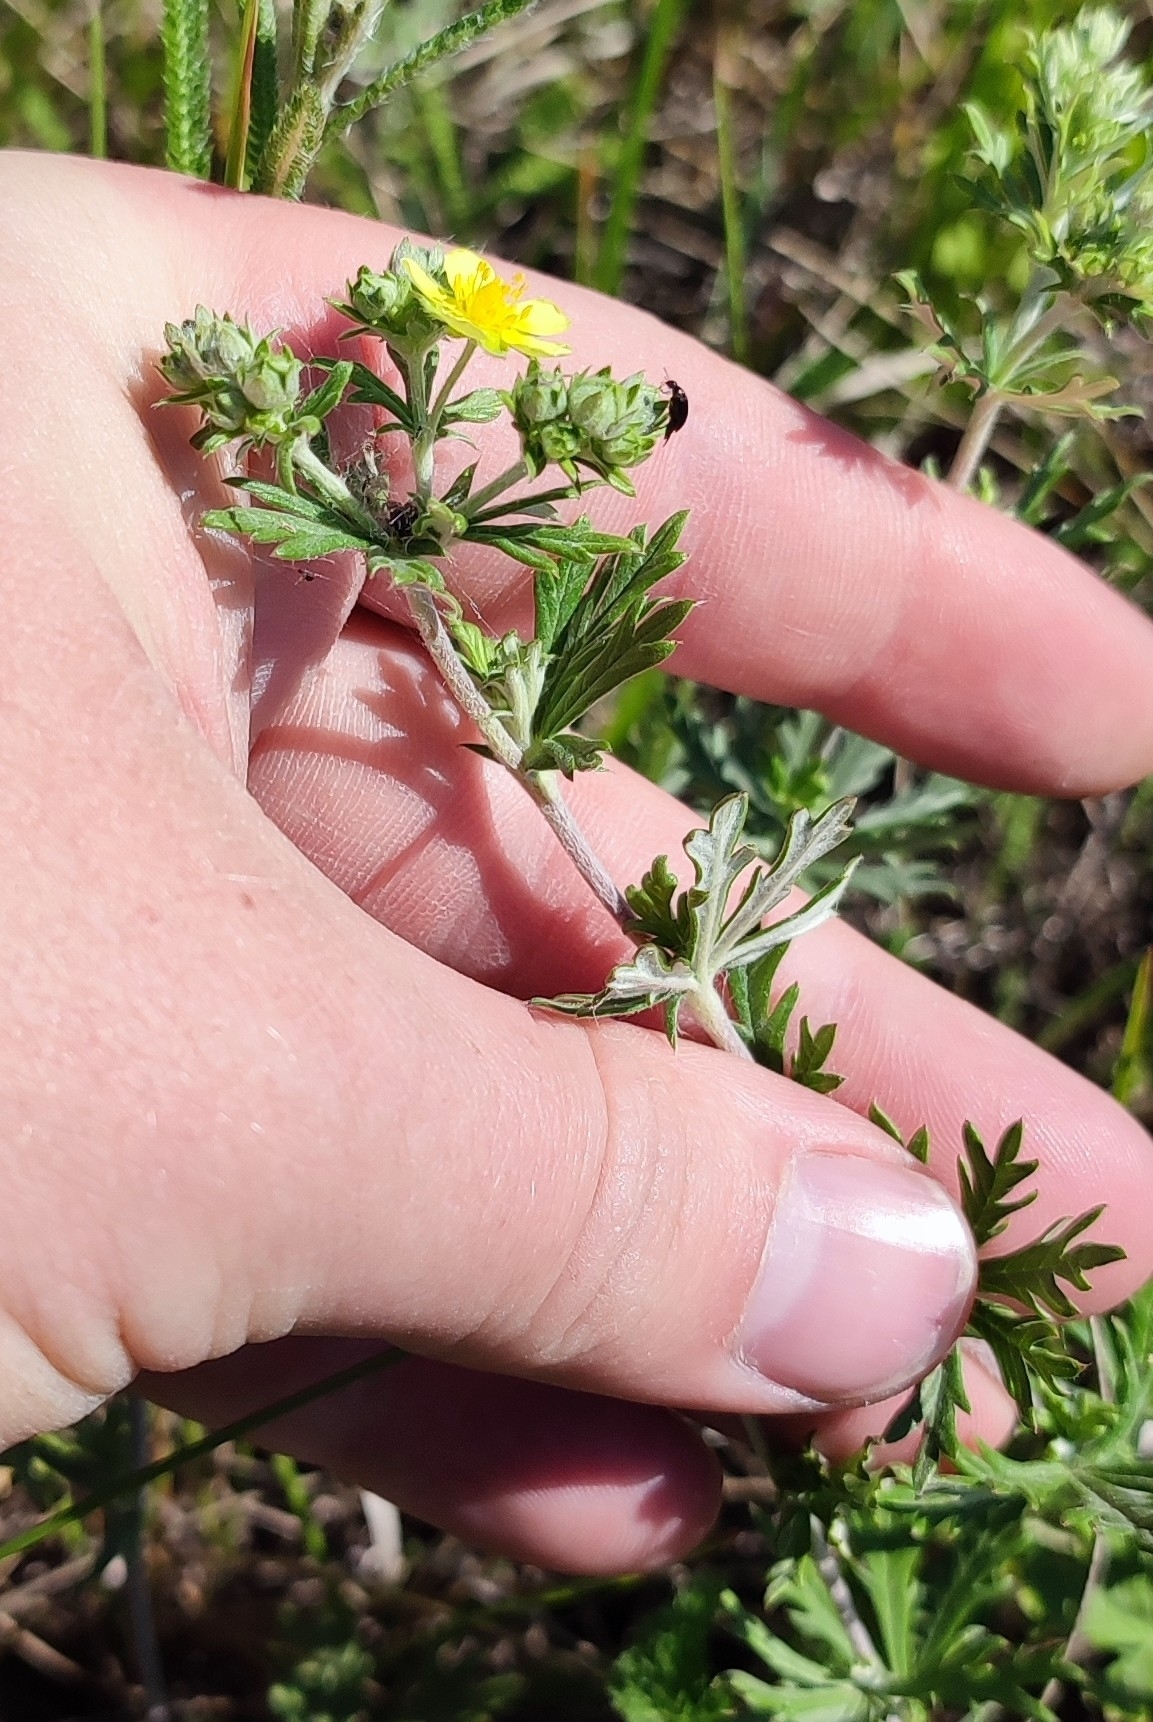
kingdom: Plantae
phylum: Tracheophyta
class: Magnoliopsida
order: Rosales
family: Rosaceae
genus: Potentilla
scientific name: Potentilla argentea
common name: Hoary cinquefoil
